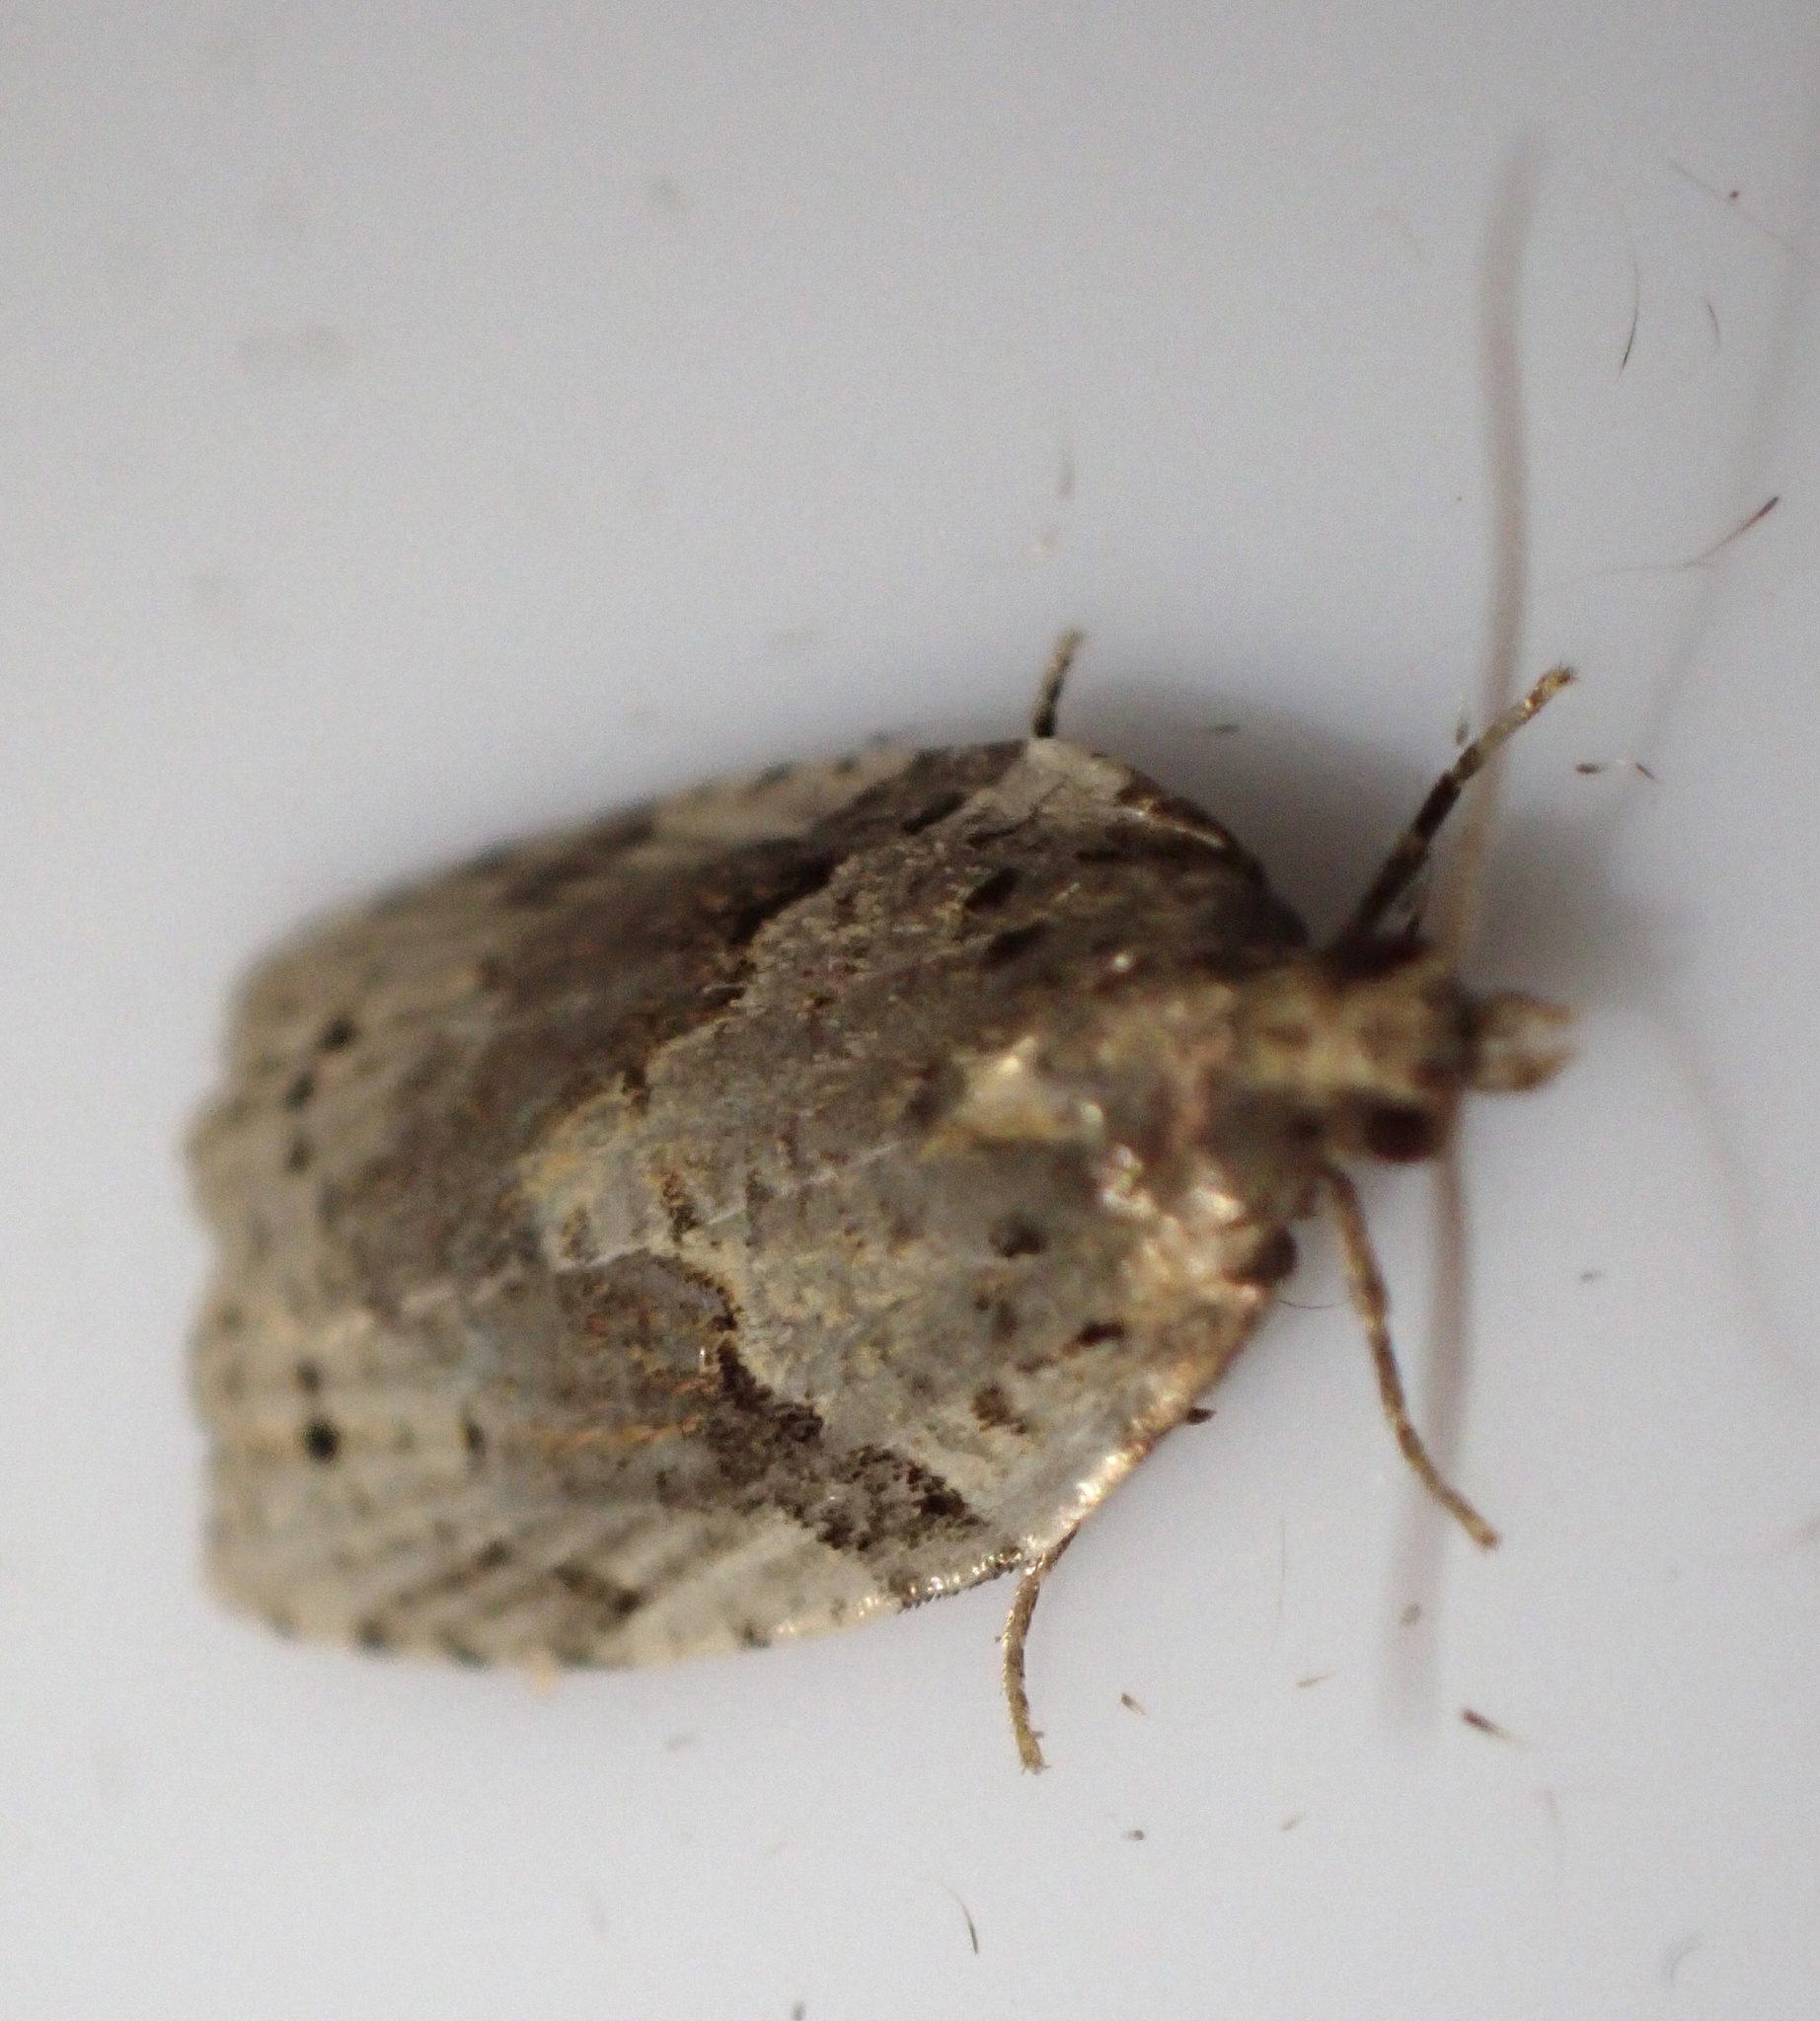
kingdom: Animalia
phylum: Arthropoda
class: Insecta
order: Lepidoptera
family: Tortricidae
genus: Clepsis
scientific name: Clepsis spectrana
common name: Cyclamen tortrix
